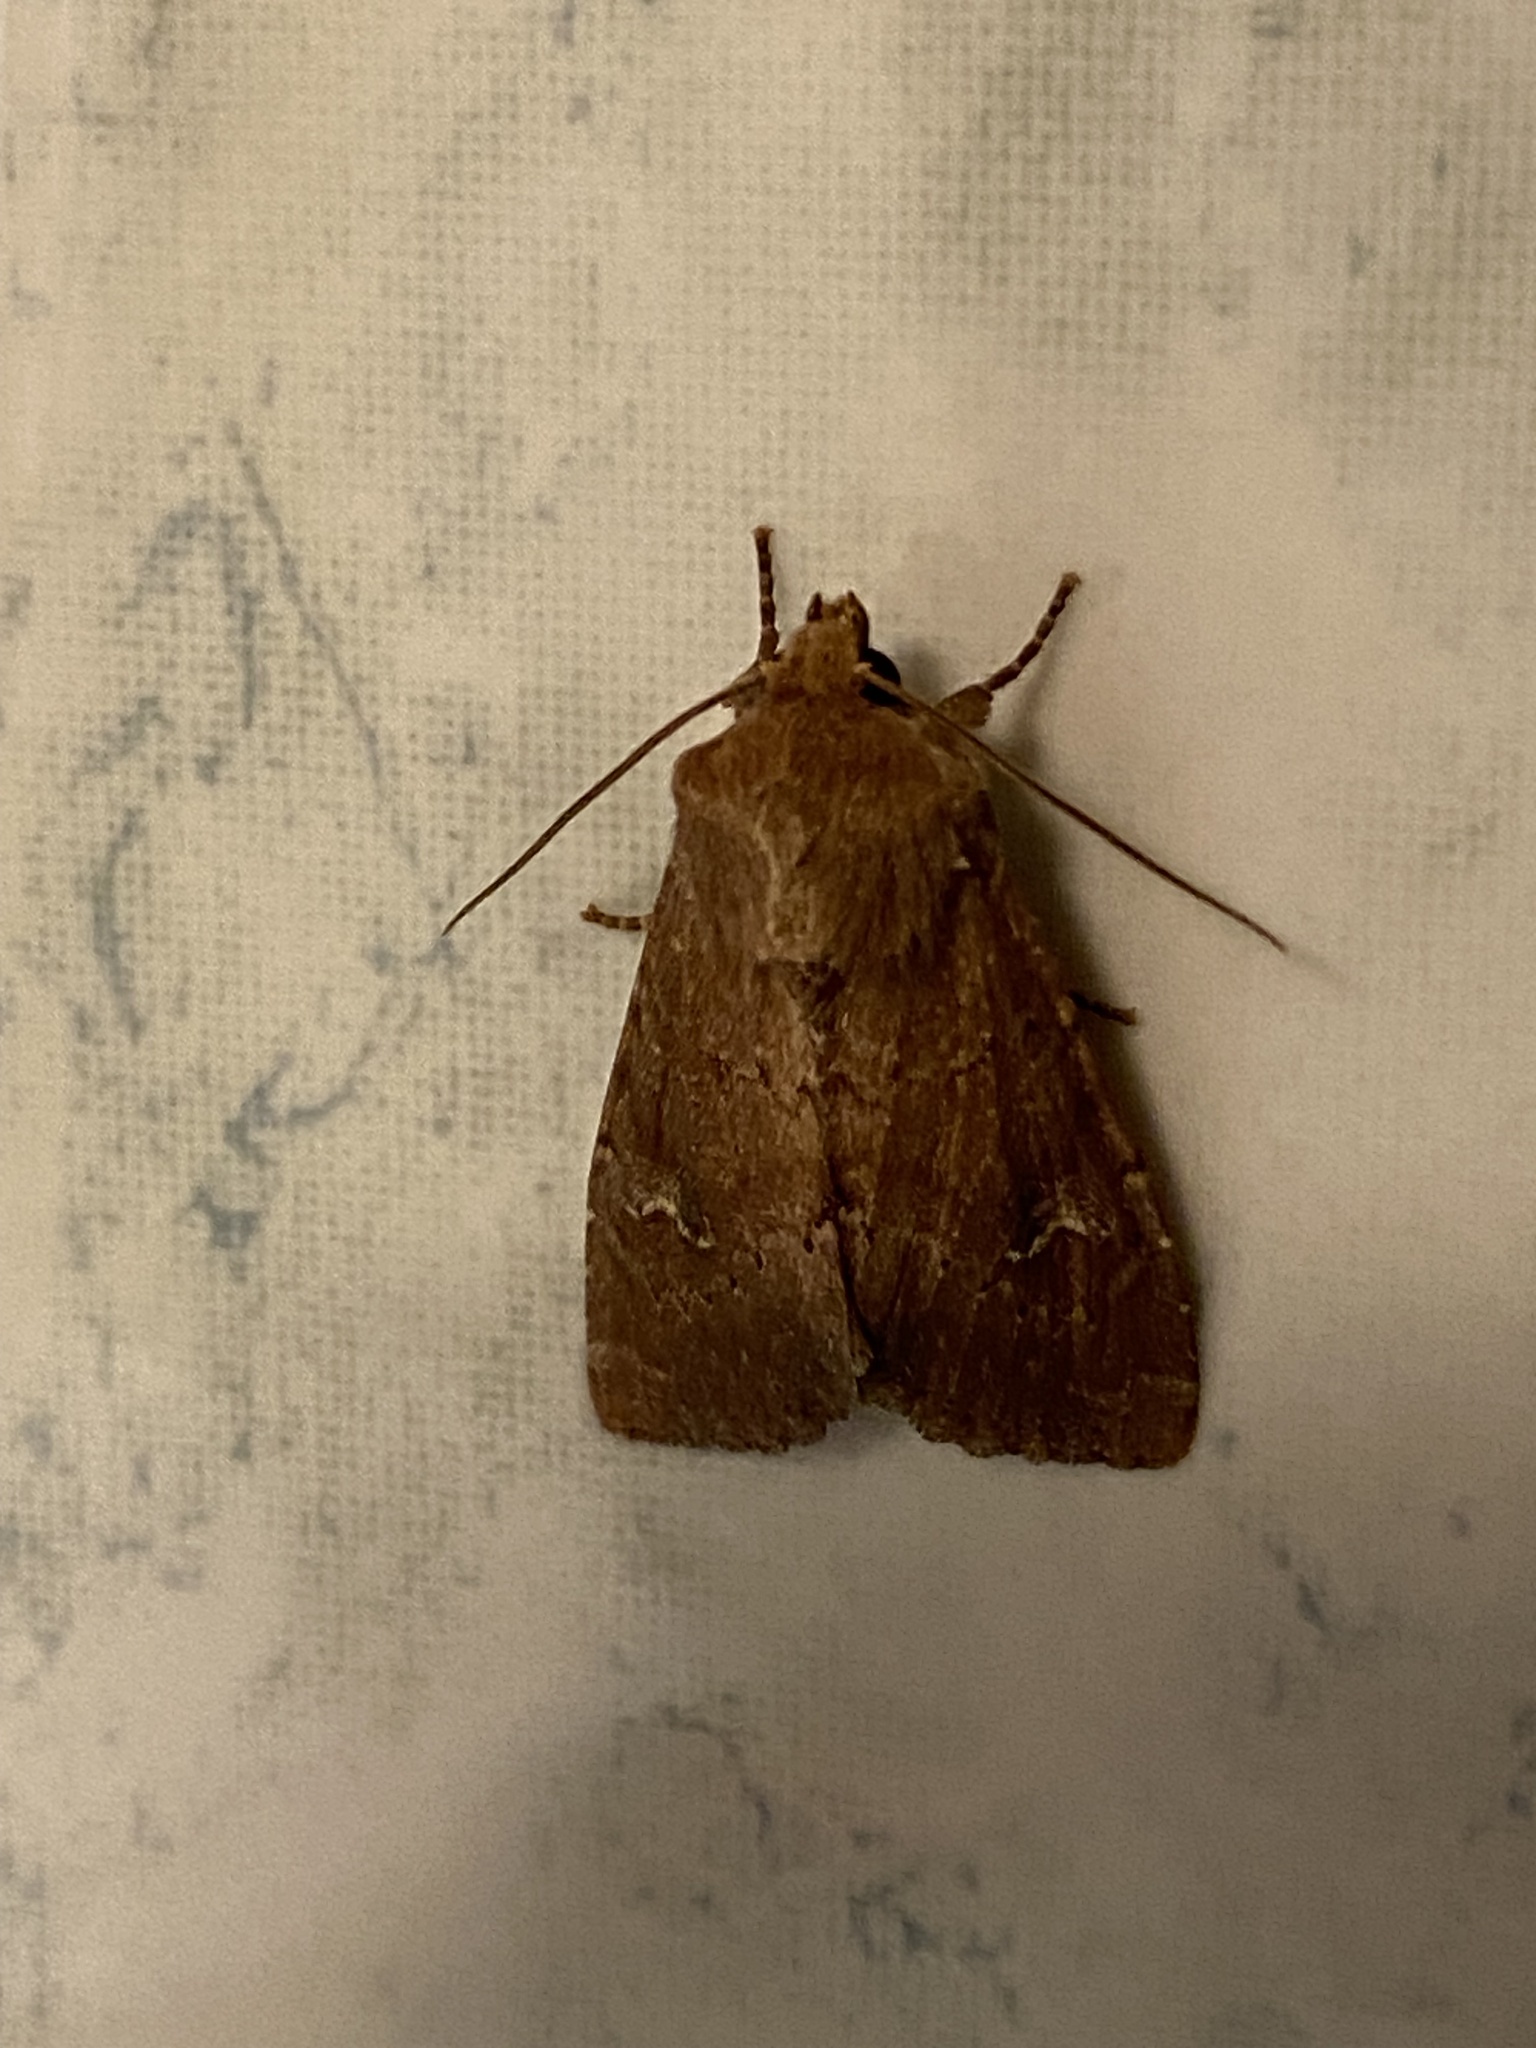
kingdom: Animalia
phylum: Arthropoda
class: Insecta
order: Lepidoptera
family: Noctuidae
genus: Apamea
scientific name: Apamea lateritia
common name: Scarce brindle
